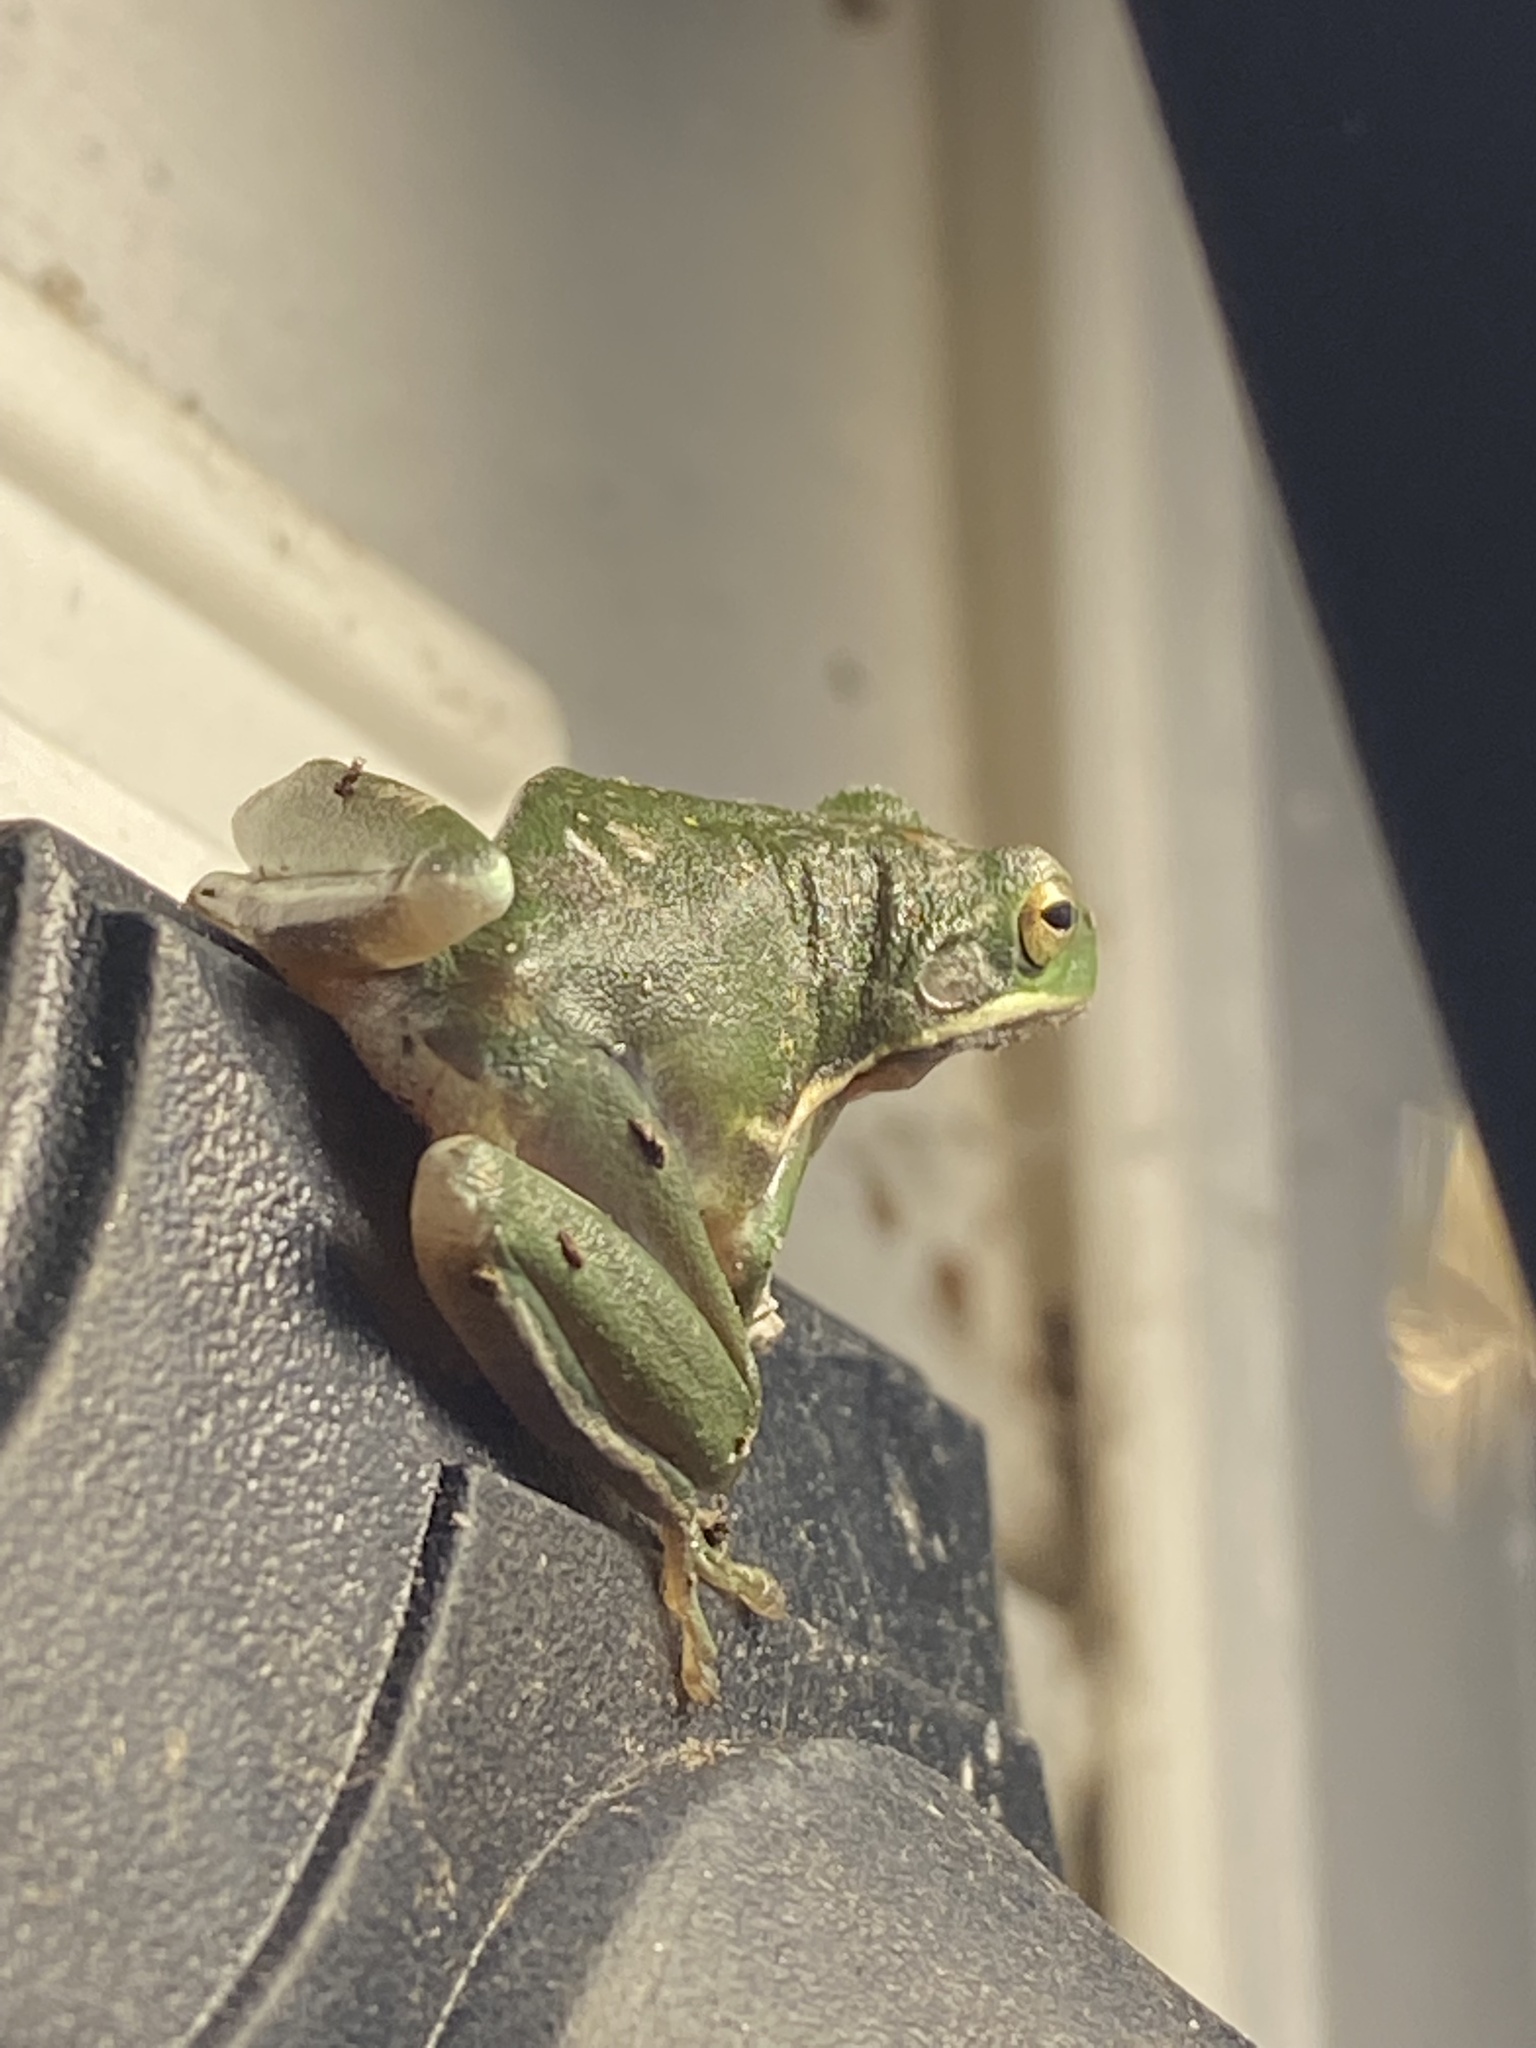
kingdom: Animalia
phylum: Chordata
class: Amphibia
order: Anura
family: Hylidae
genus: Dryophytes
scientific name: Dryophytes cinereus
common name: Green treefrog
